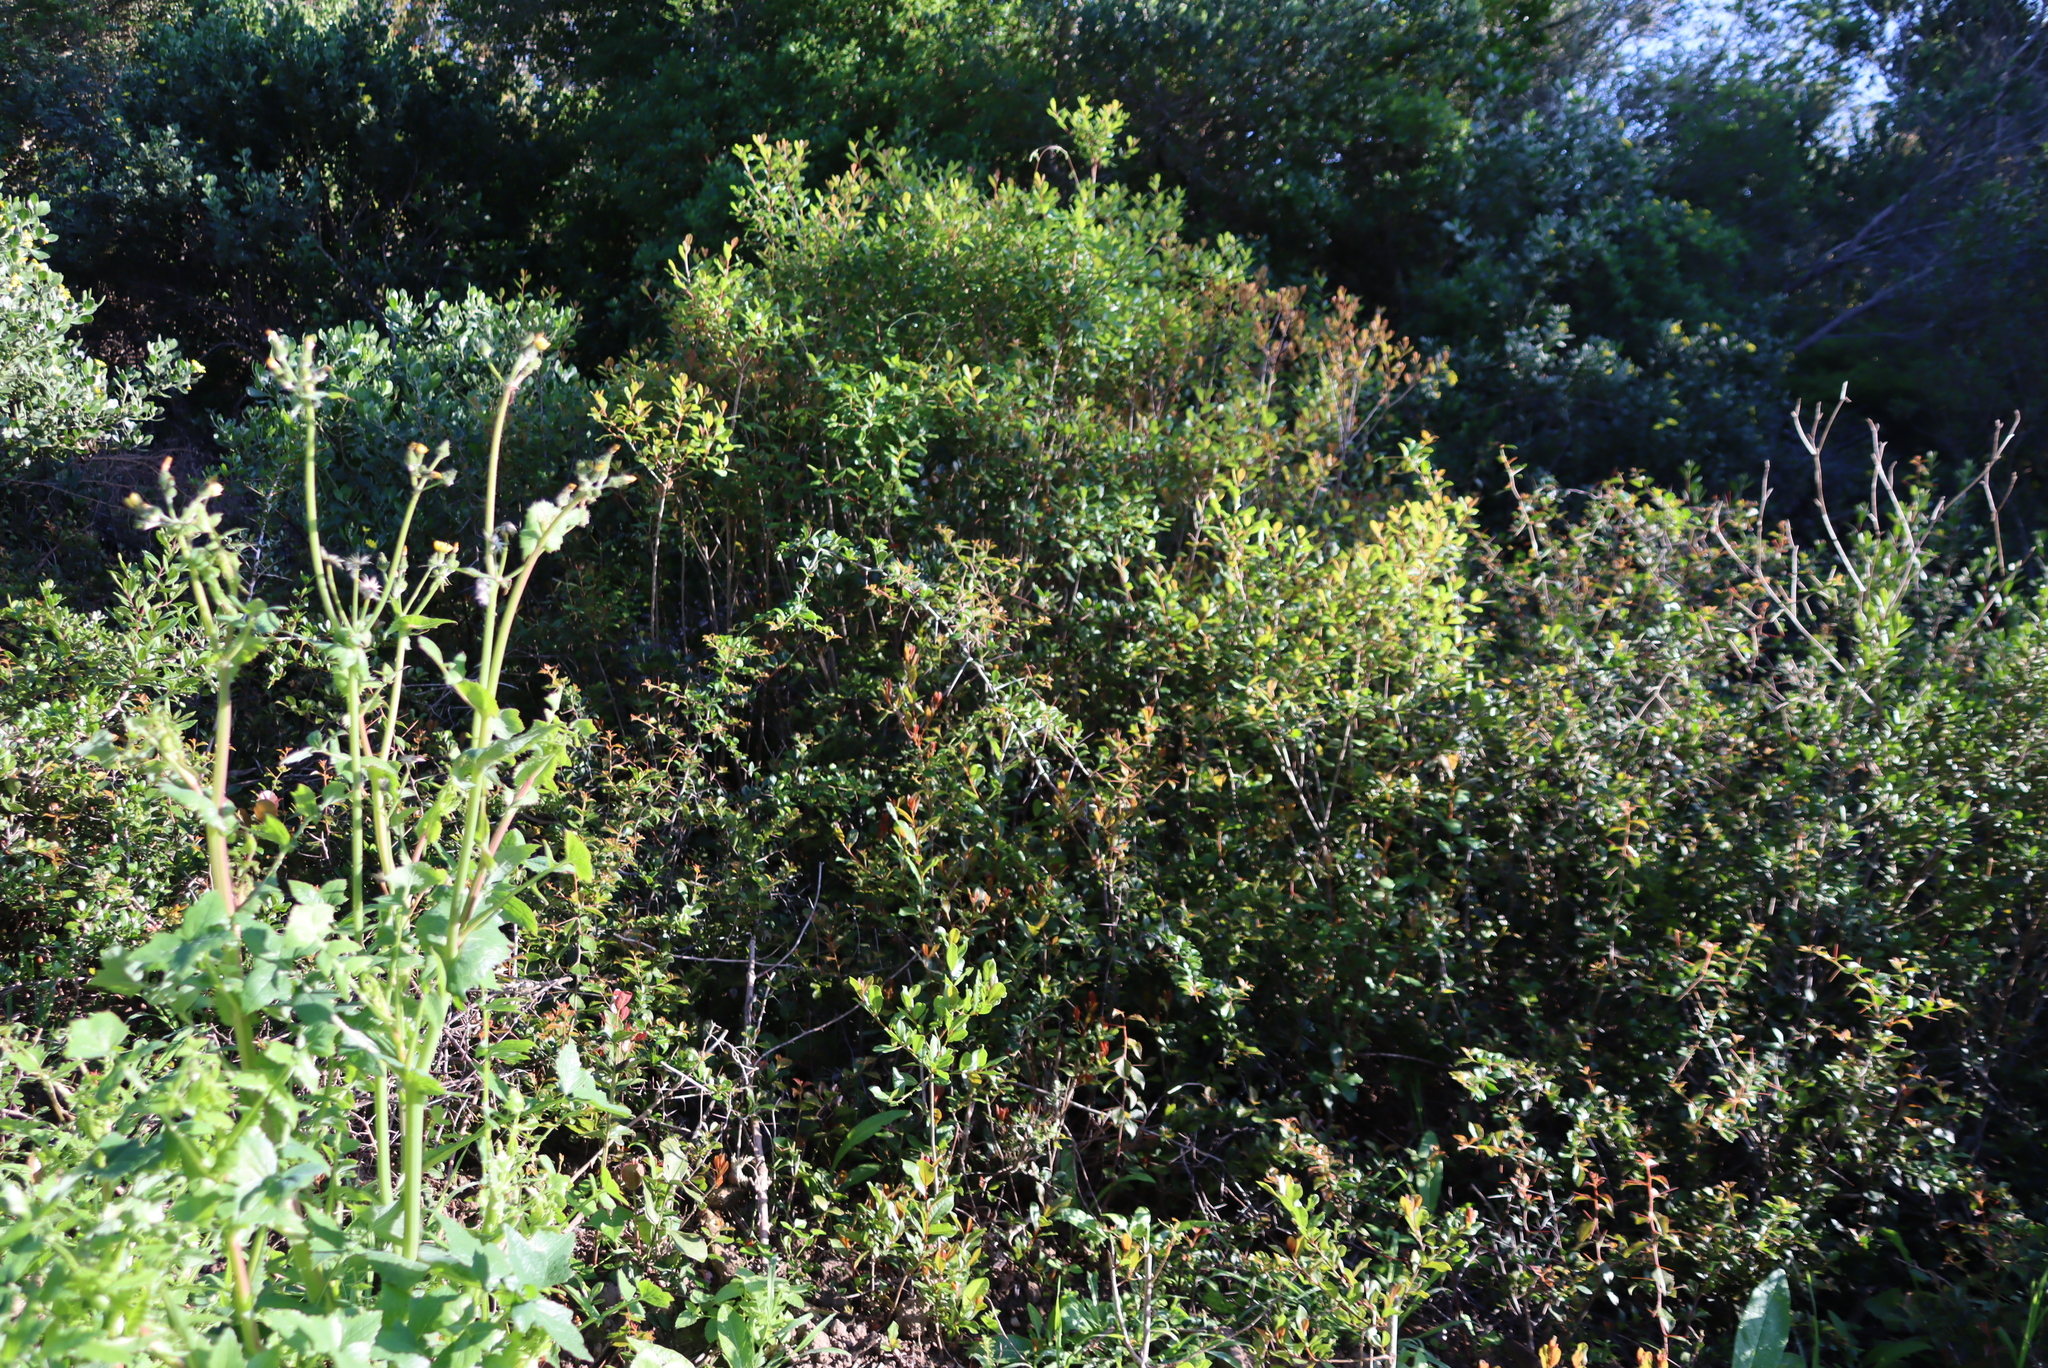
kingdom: Plantae
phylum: Tracheophyta
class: Magnoliopsida
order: Asterales
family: Asteraceae
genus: Sonchus
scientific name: Sonchus asper
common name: Prickly sow-thistle
